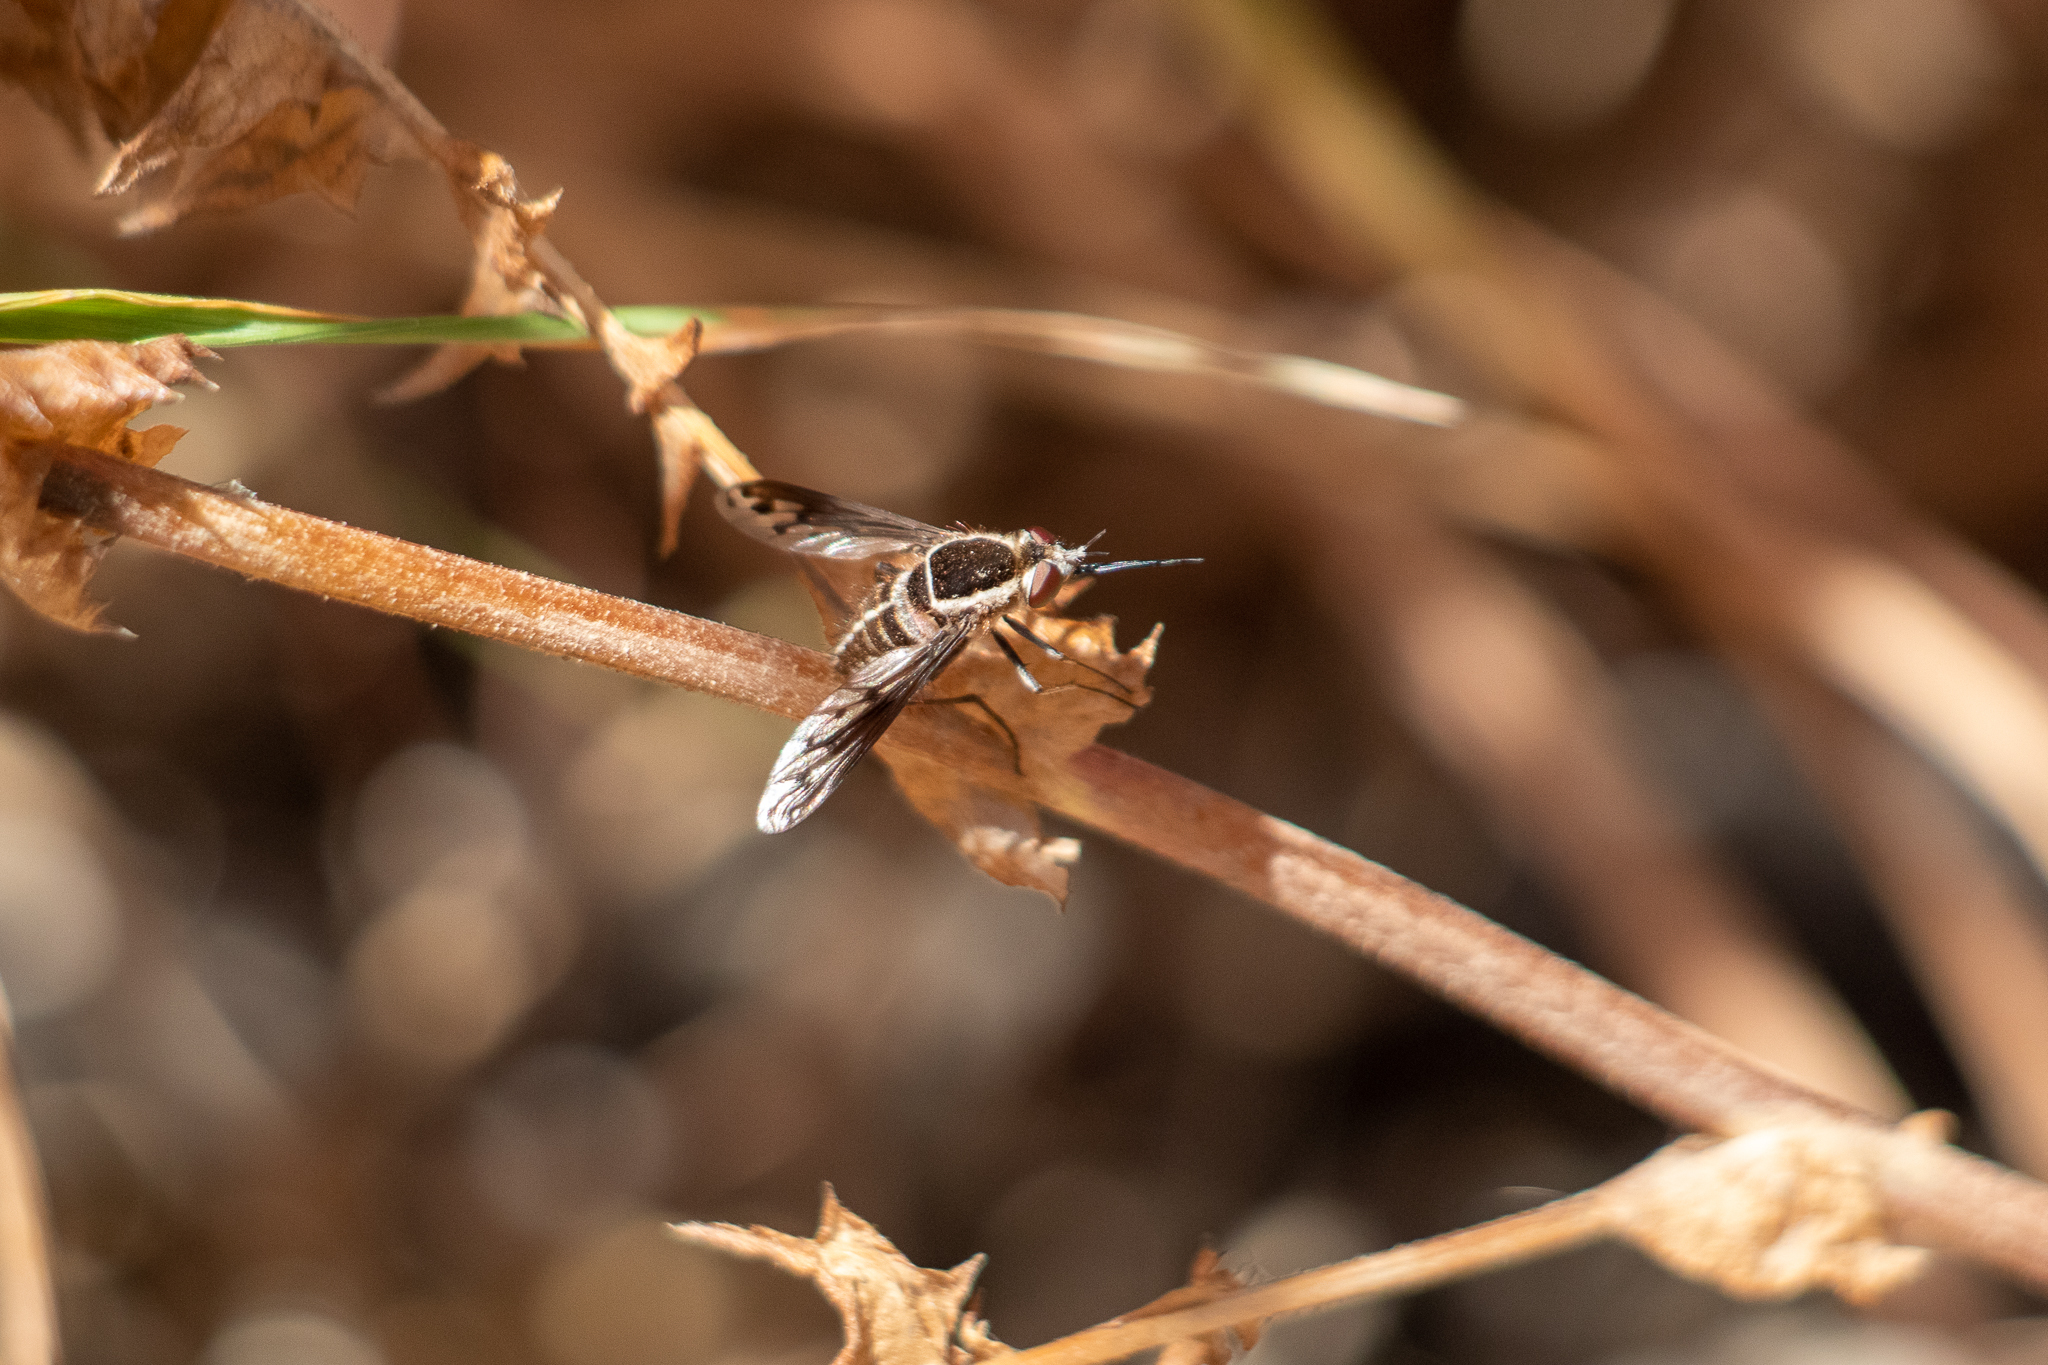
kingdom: Animalia
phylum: Arthropoda
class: Insecta
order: Diptera
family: Bombyliidae
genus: Acrophthalmyda
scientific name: Acrophthalmyda paulseni
